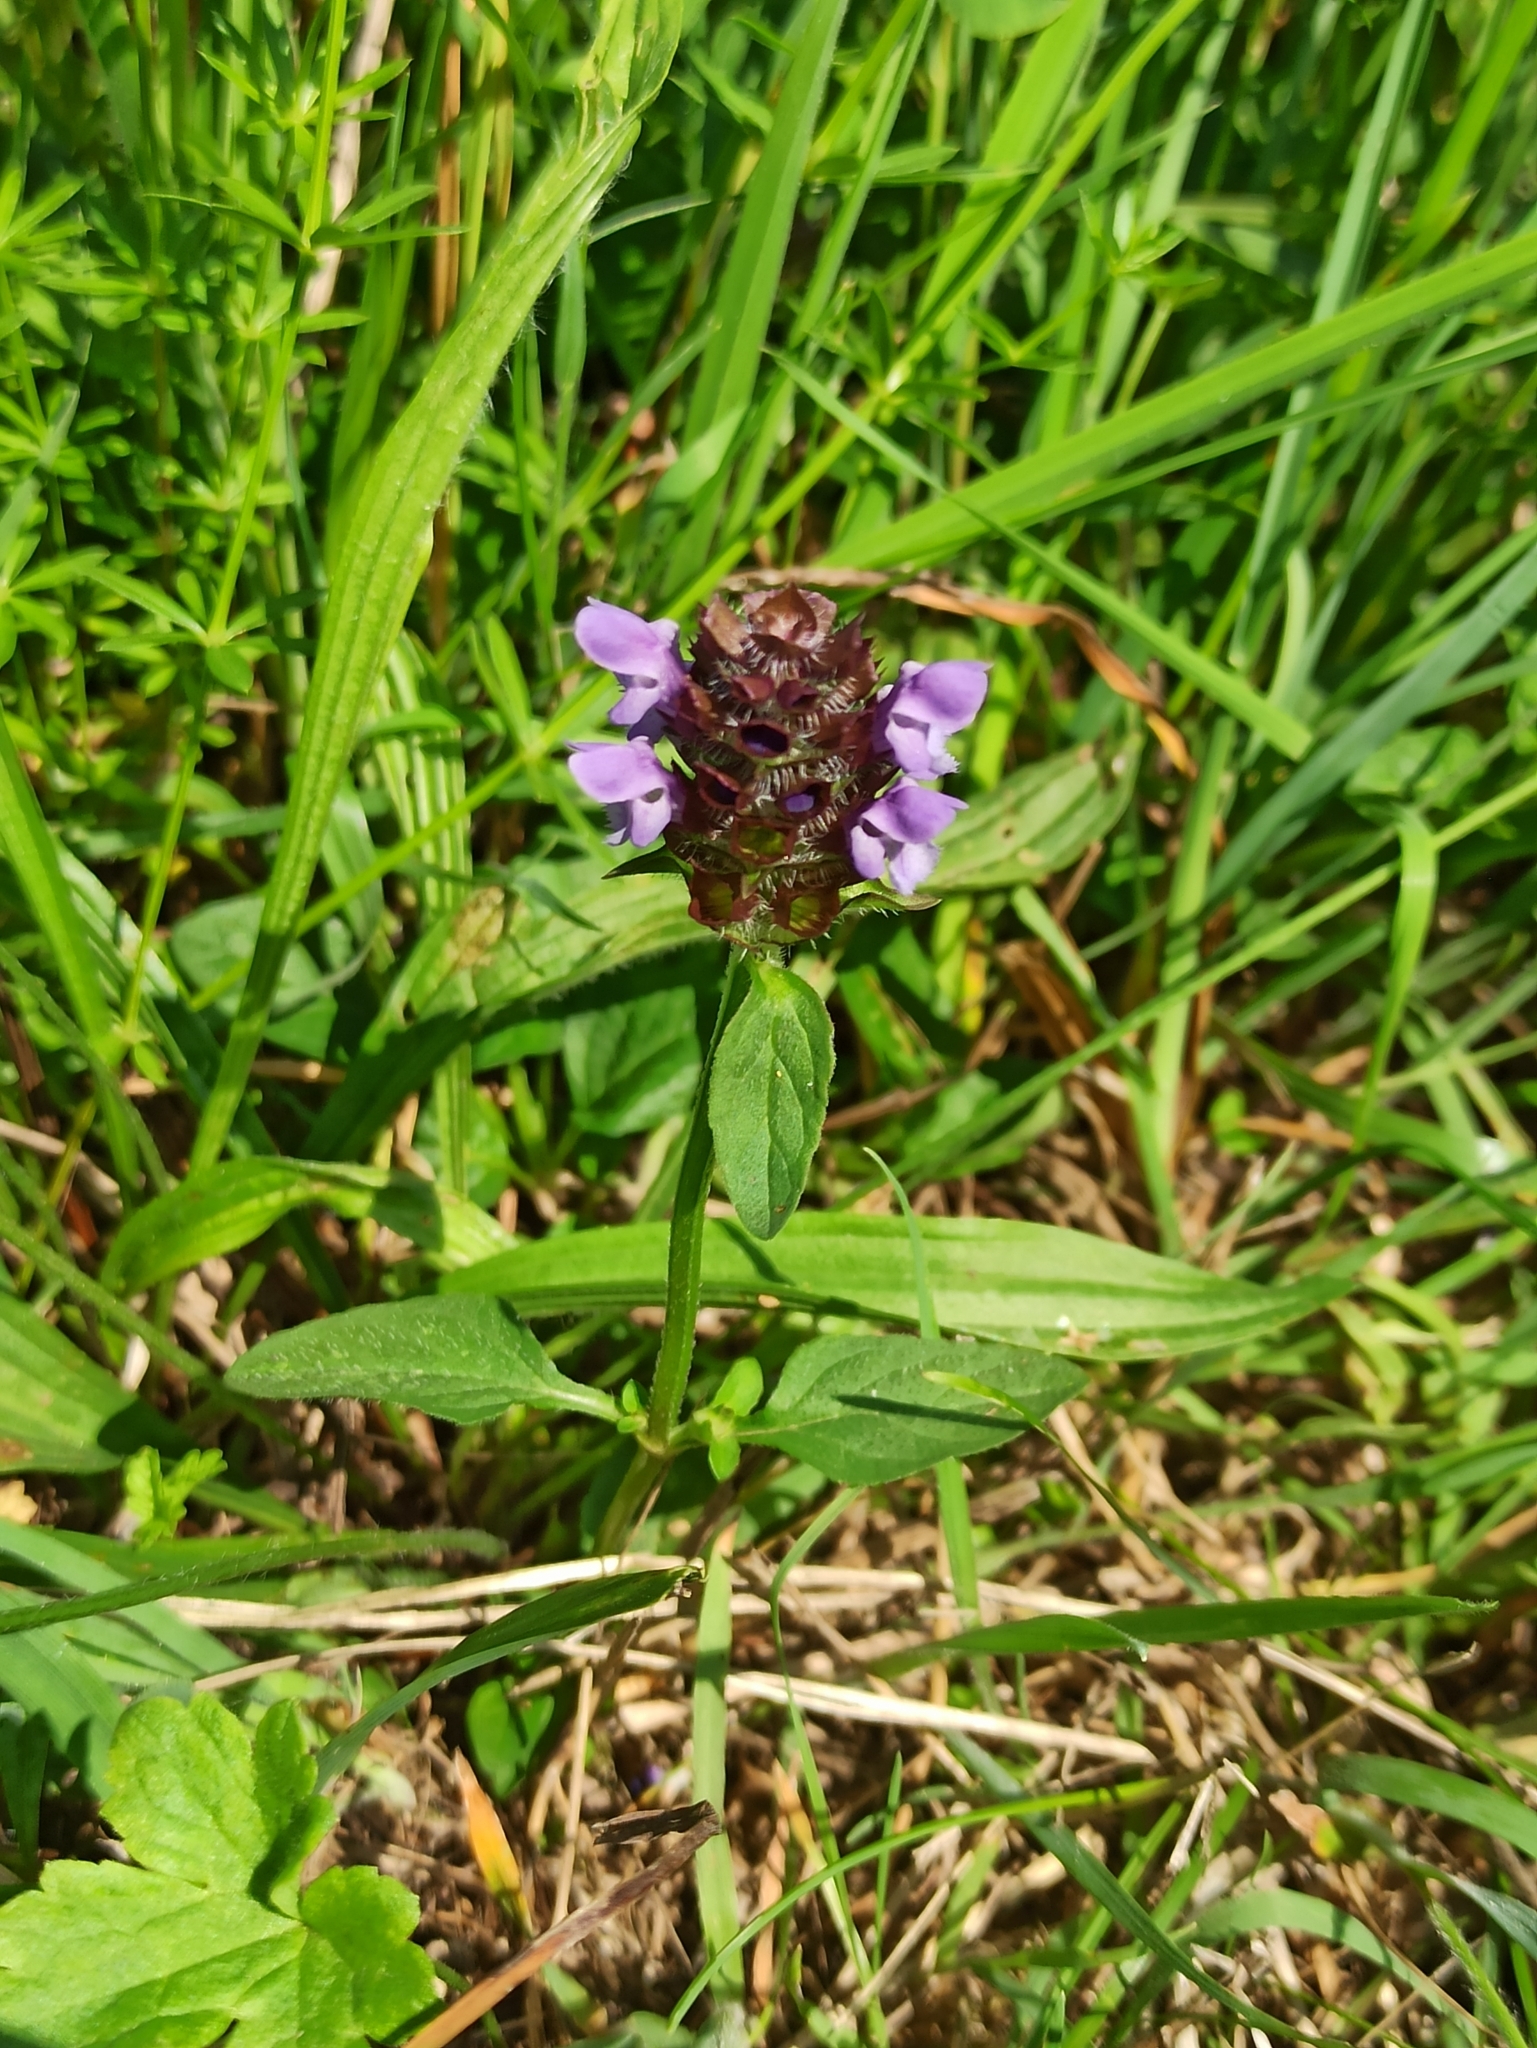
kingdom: Plantae
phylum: Tracheophyta
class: Magnoliopsida
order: Lamiales
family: Lamiaceae
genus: Prunella
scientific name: Prunella vulgaris
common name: Heal-all
